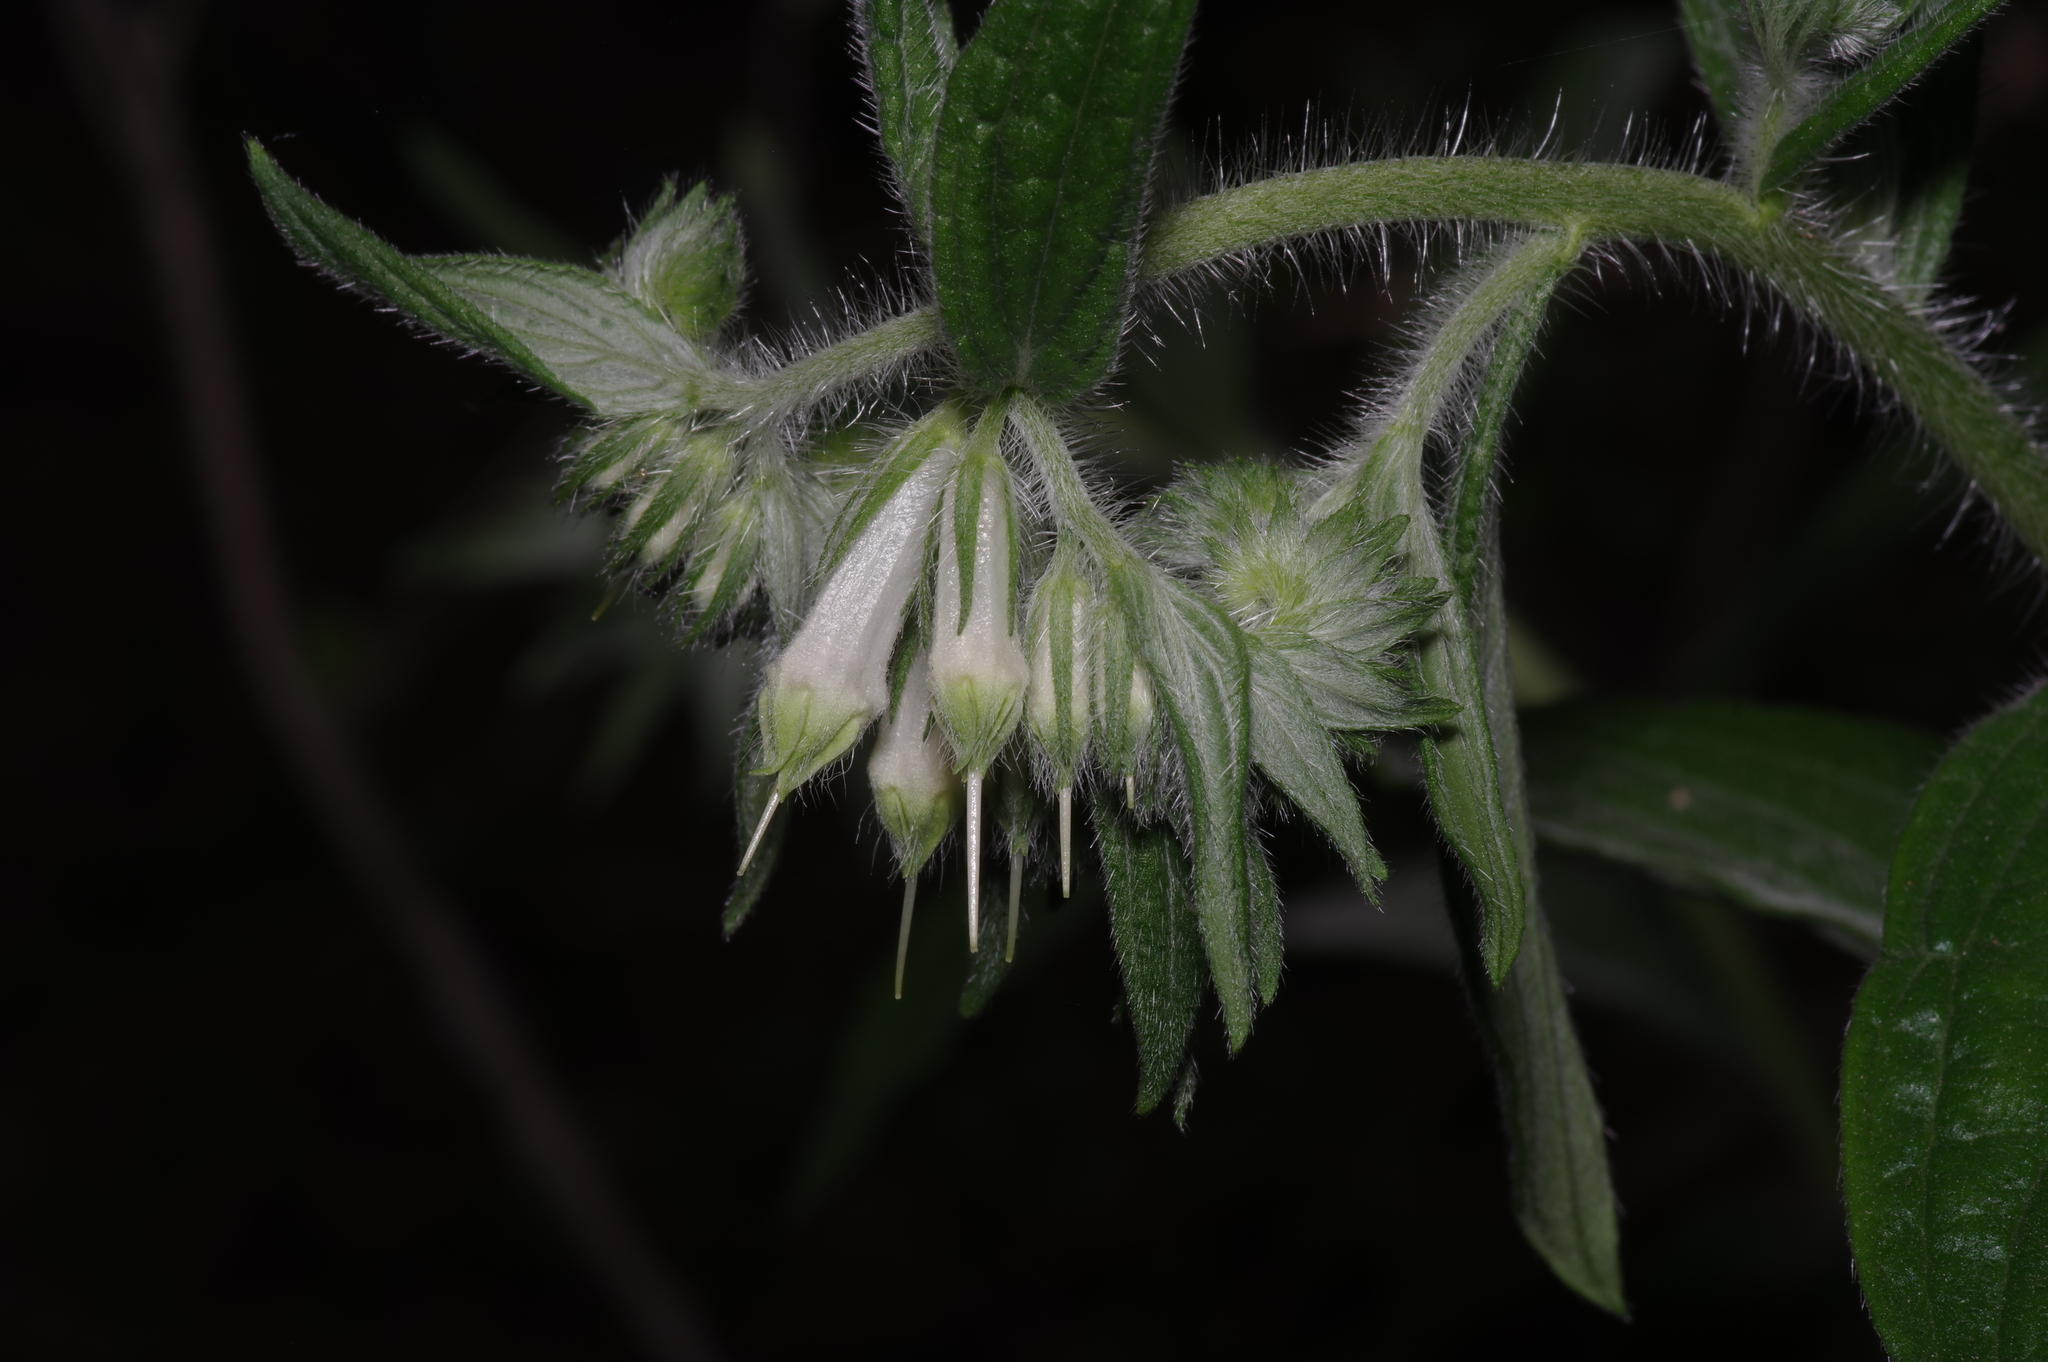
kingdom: Plantae
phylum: Tracheophyta
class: Magnoliopsida
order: Boraginales
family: Boraginaceae
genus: Lithospermum
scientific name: Lithospermum caroliniense
